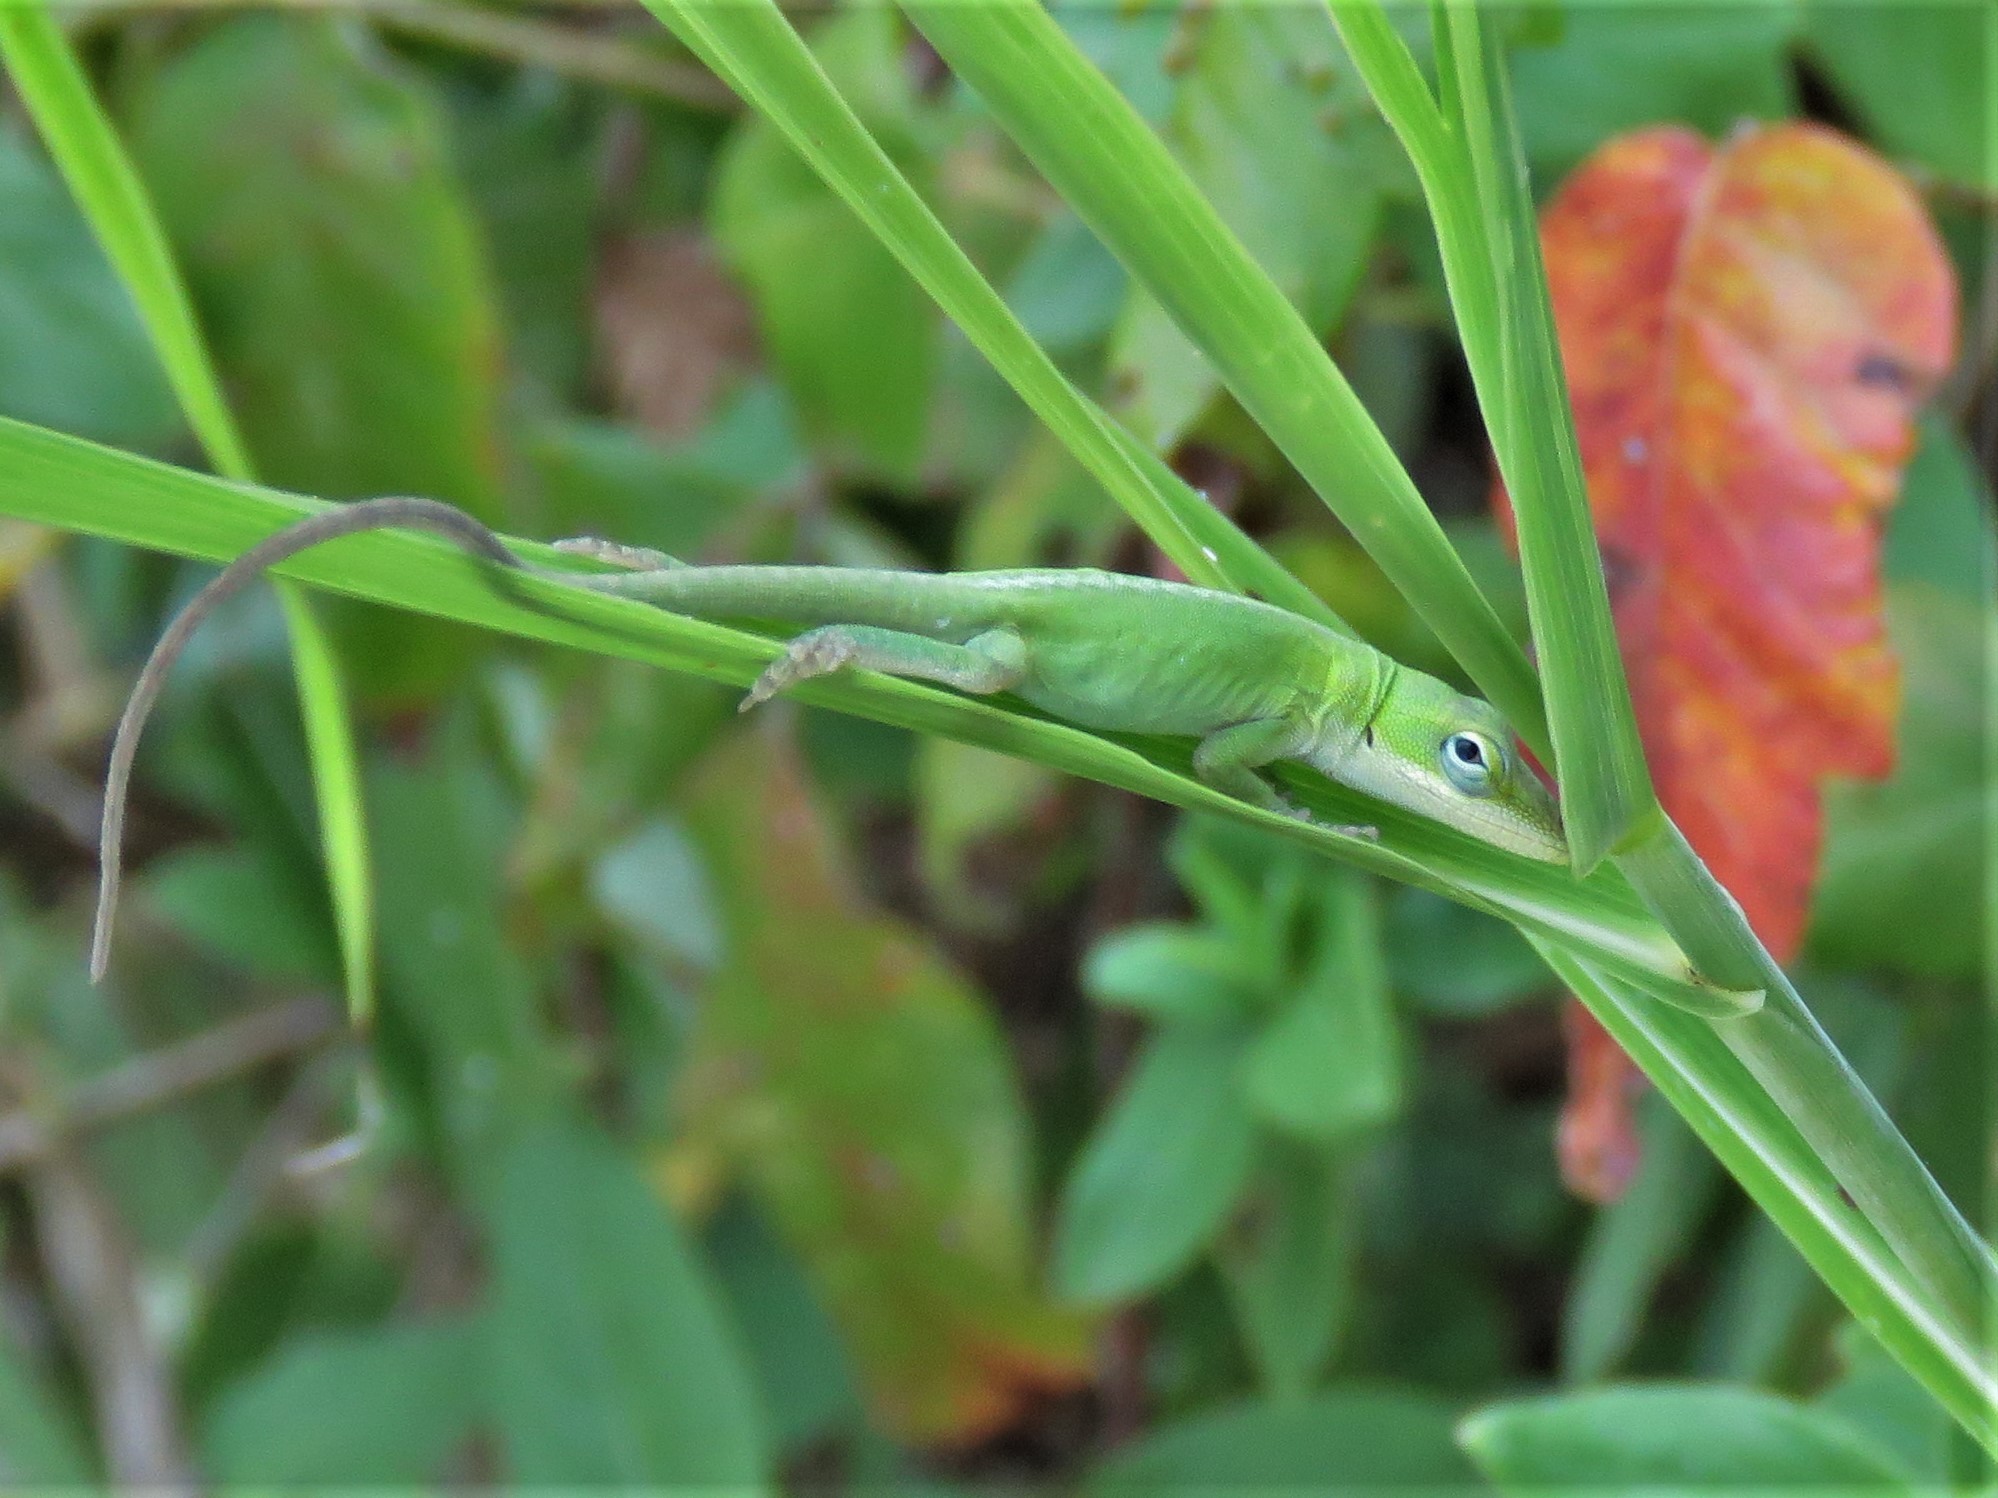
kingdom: Animalia
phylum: Chordata
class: Squamata
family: Dactyloidae
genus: Anolis
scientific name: Anolis carolinensis
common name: Green anole
